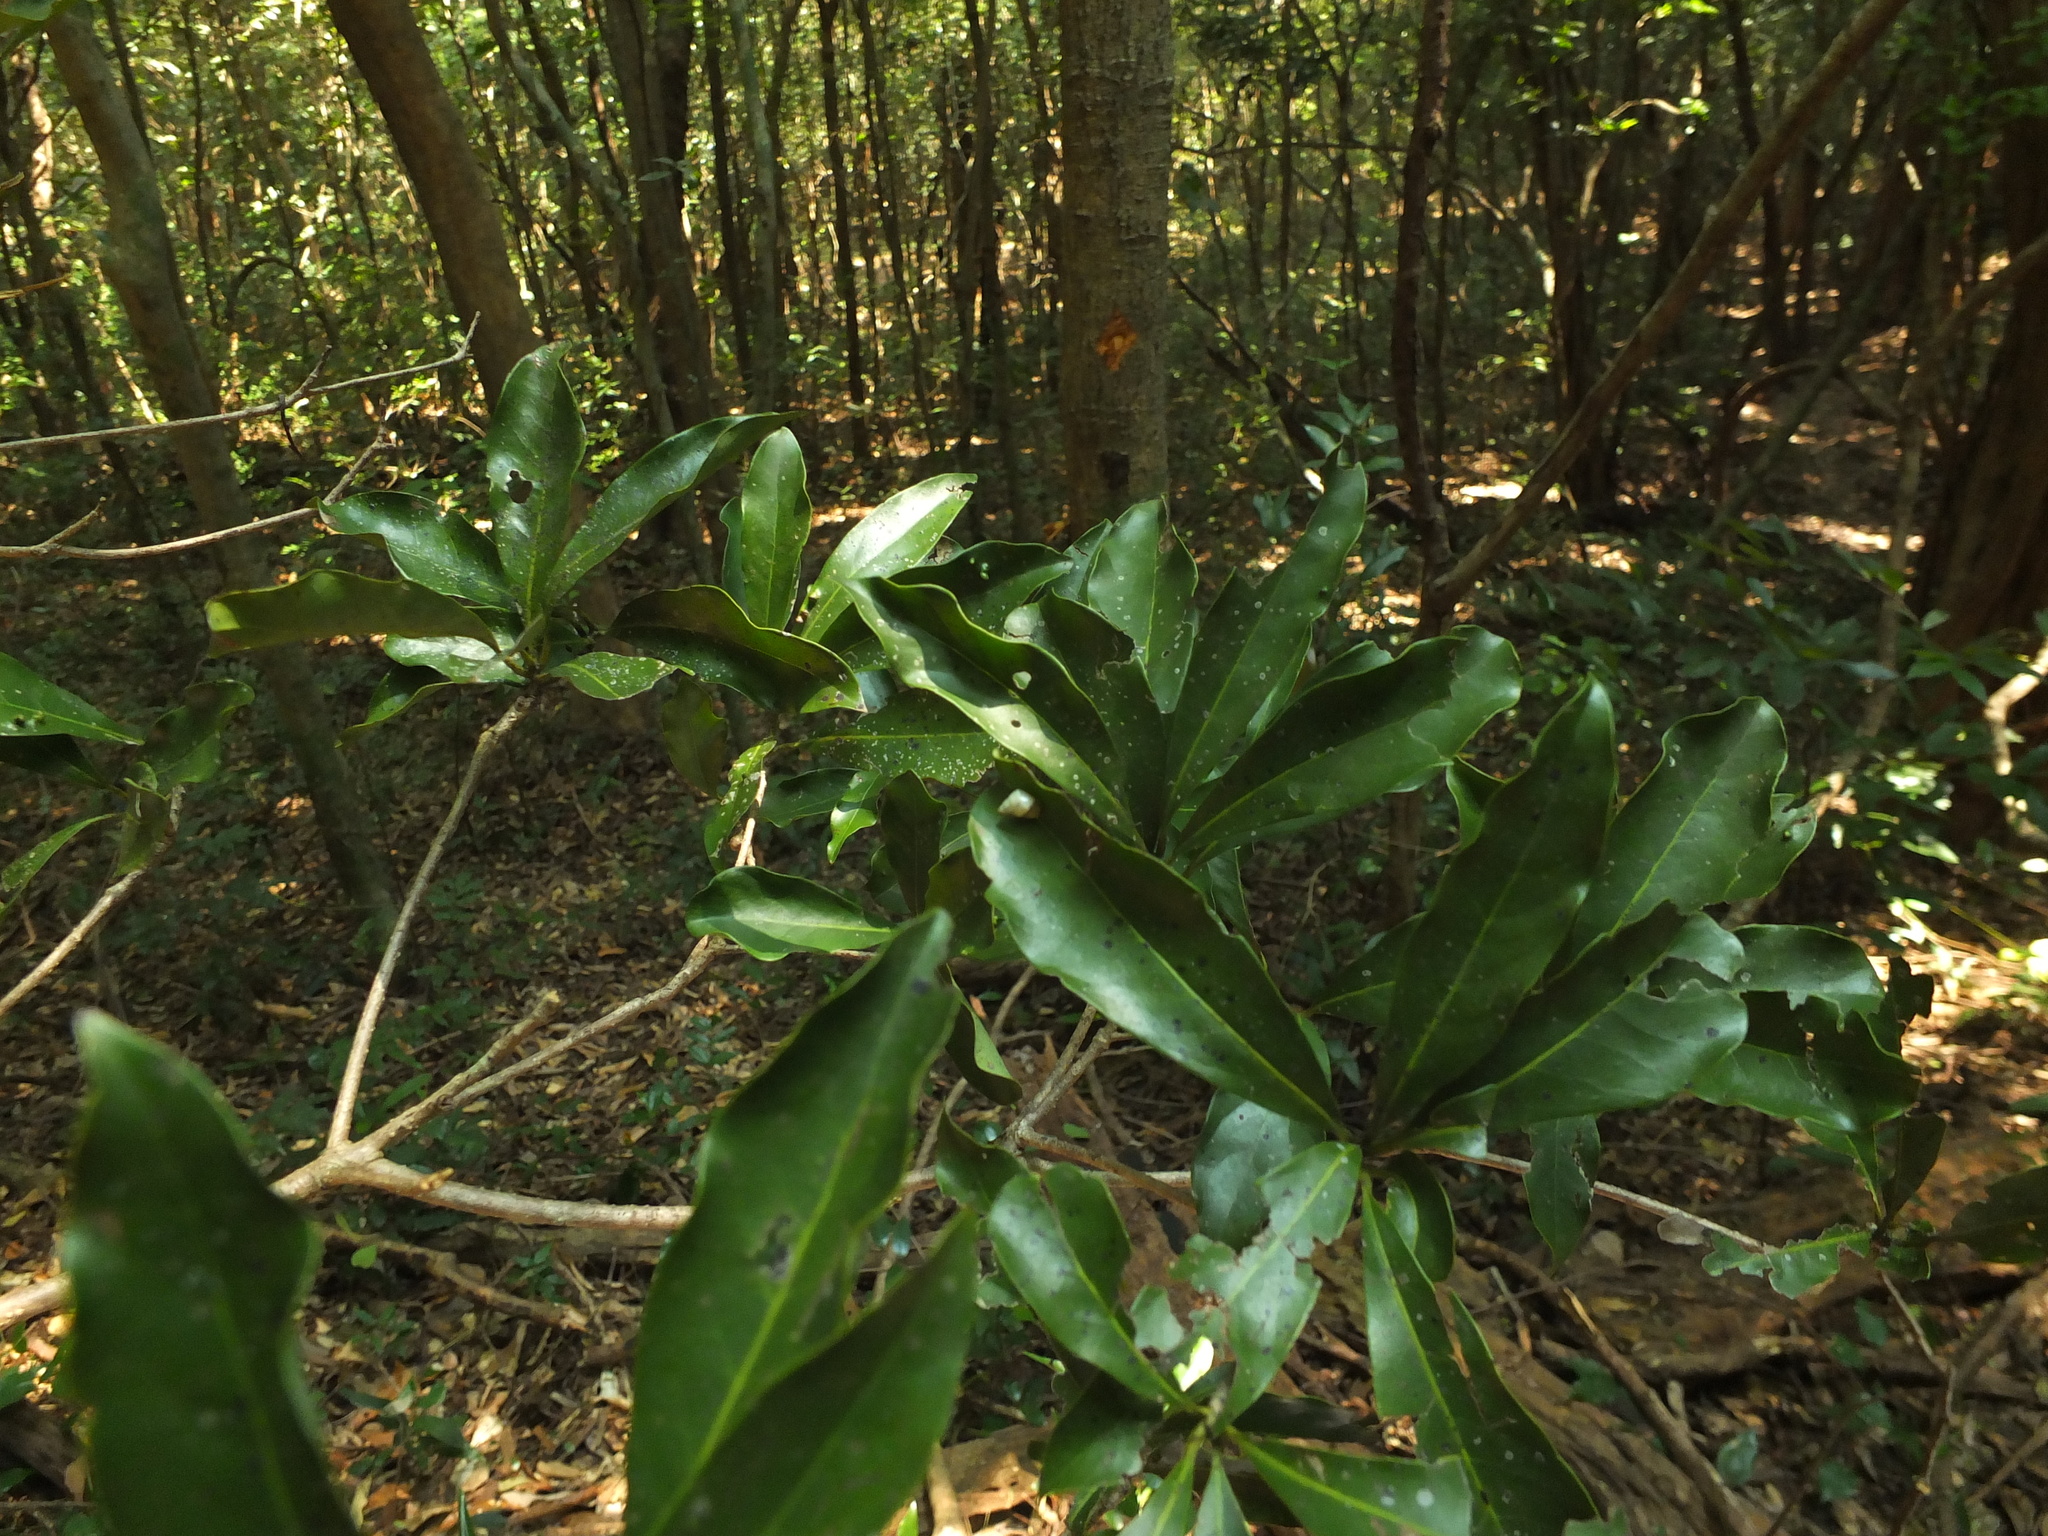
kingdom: Plantae
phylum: Tracheophyta
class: Magnoliopsida
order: Laurales
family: Lauraceae
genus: Alseodaphne
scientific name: Alseodaphne semecarpifolia
